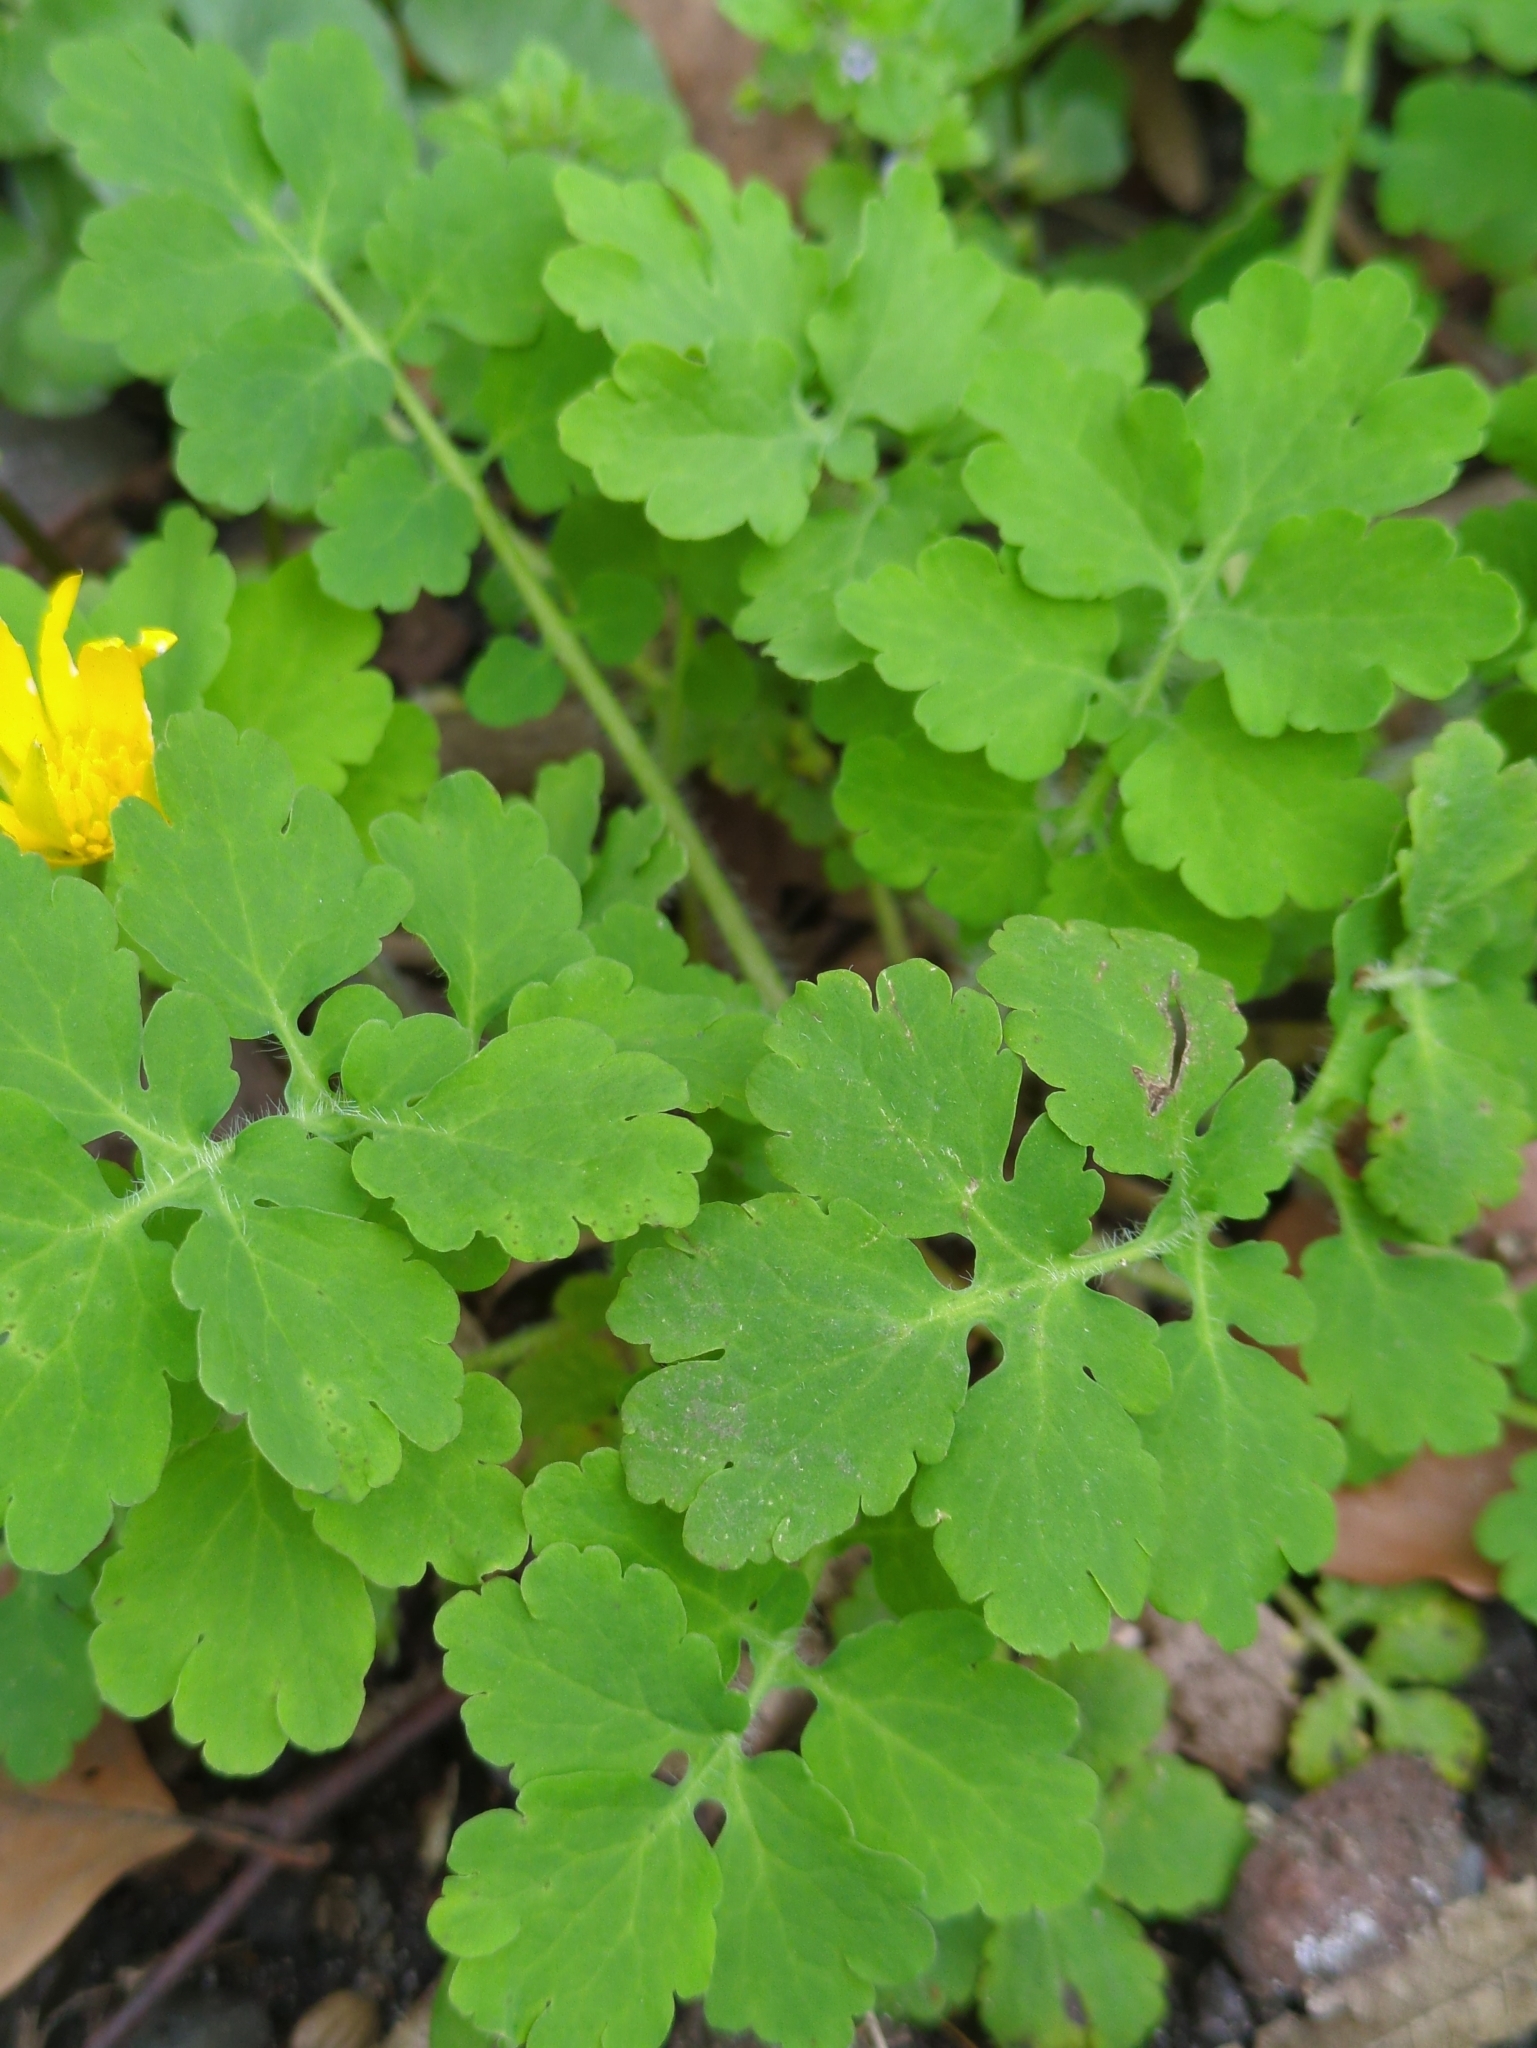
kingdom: Plantae
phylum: Tracheophyta
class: Magnoliopsida
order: Ranunculales
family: Papaveraceae
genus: Chelidonium
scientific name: Chelidonium majus
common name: Greater celandine
